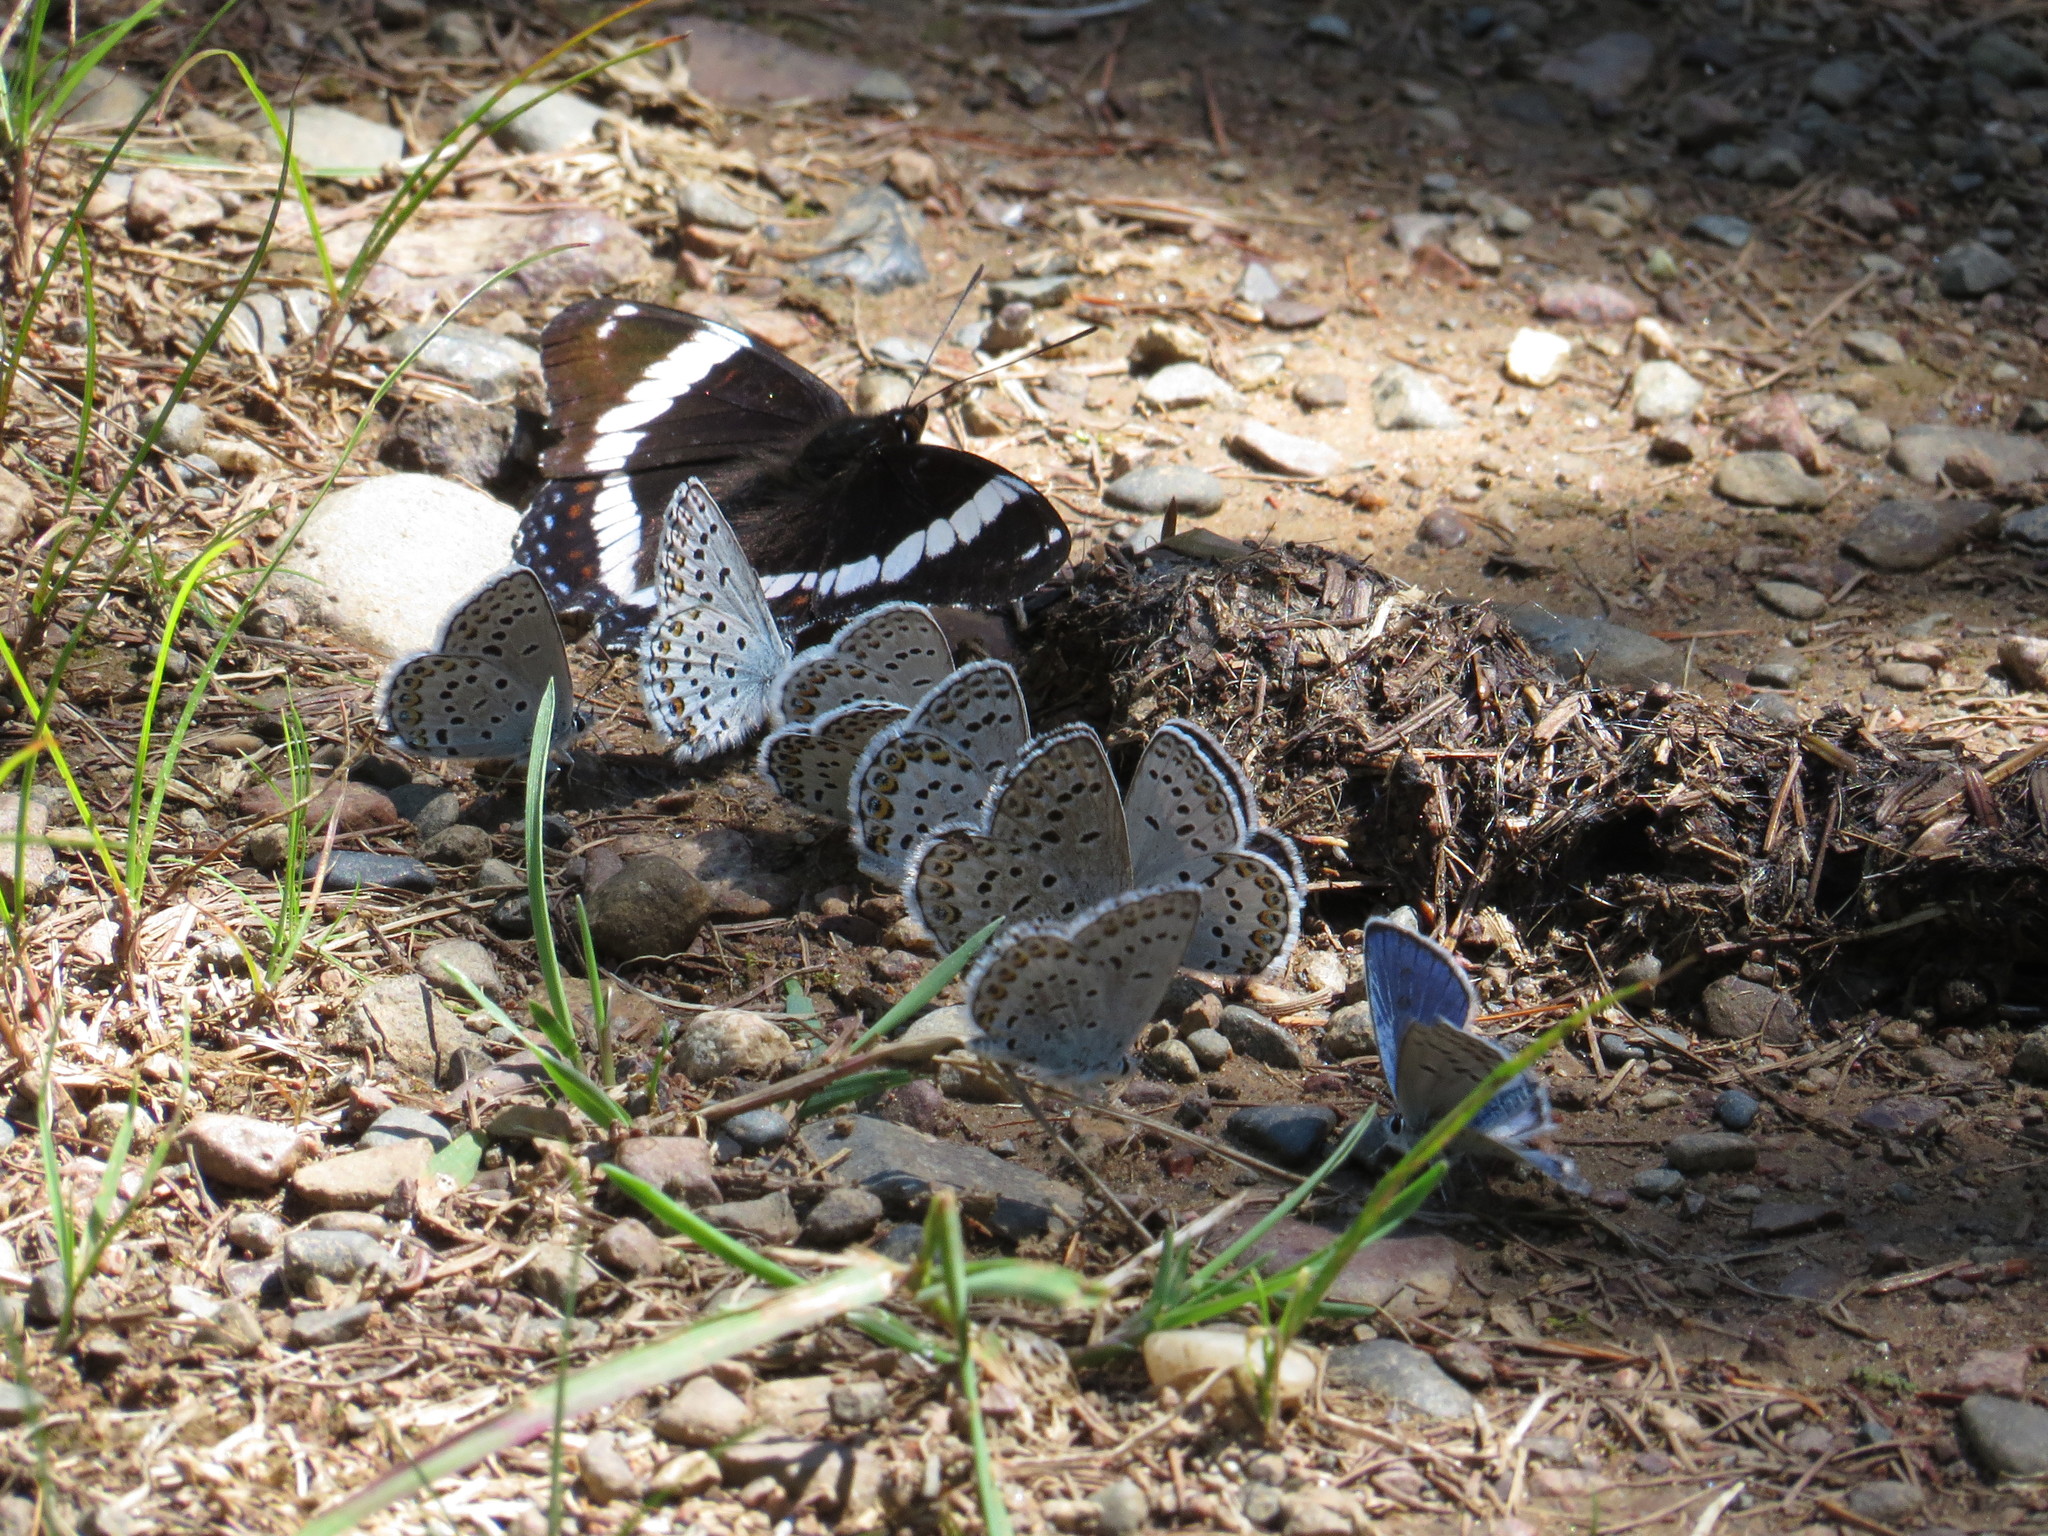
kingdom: Animalia
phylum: Arthropoda
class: Insecta
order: Lepidoptera
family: Nymphalidae
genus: Limenitis
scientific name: Limenitis arthemis
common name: Red-spotted admiral
